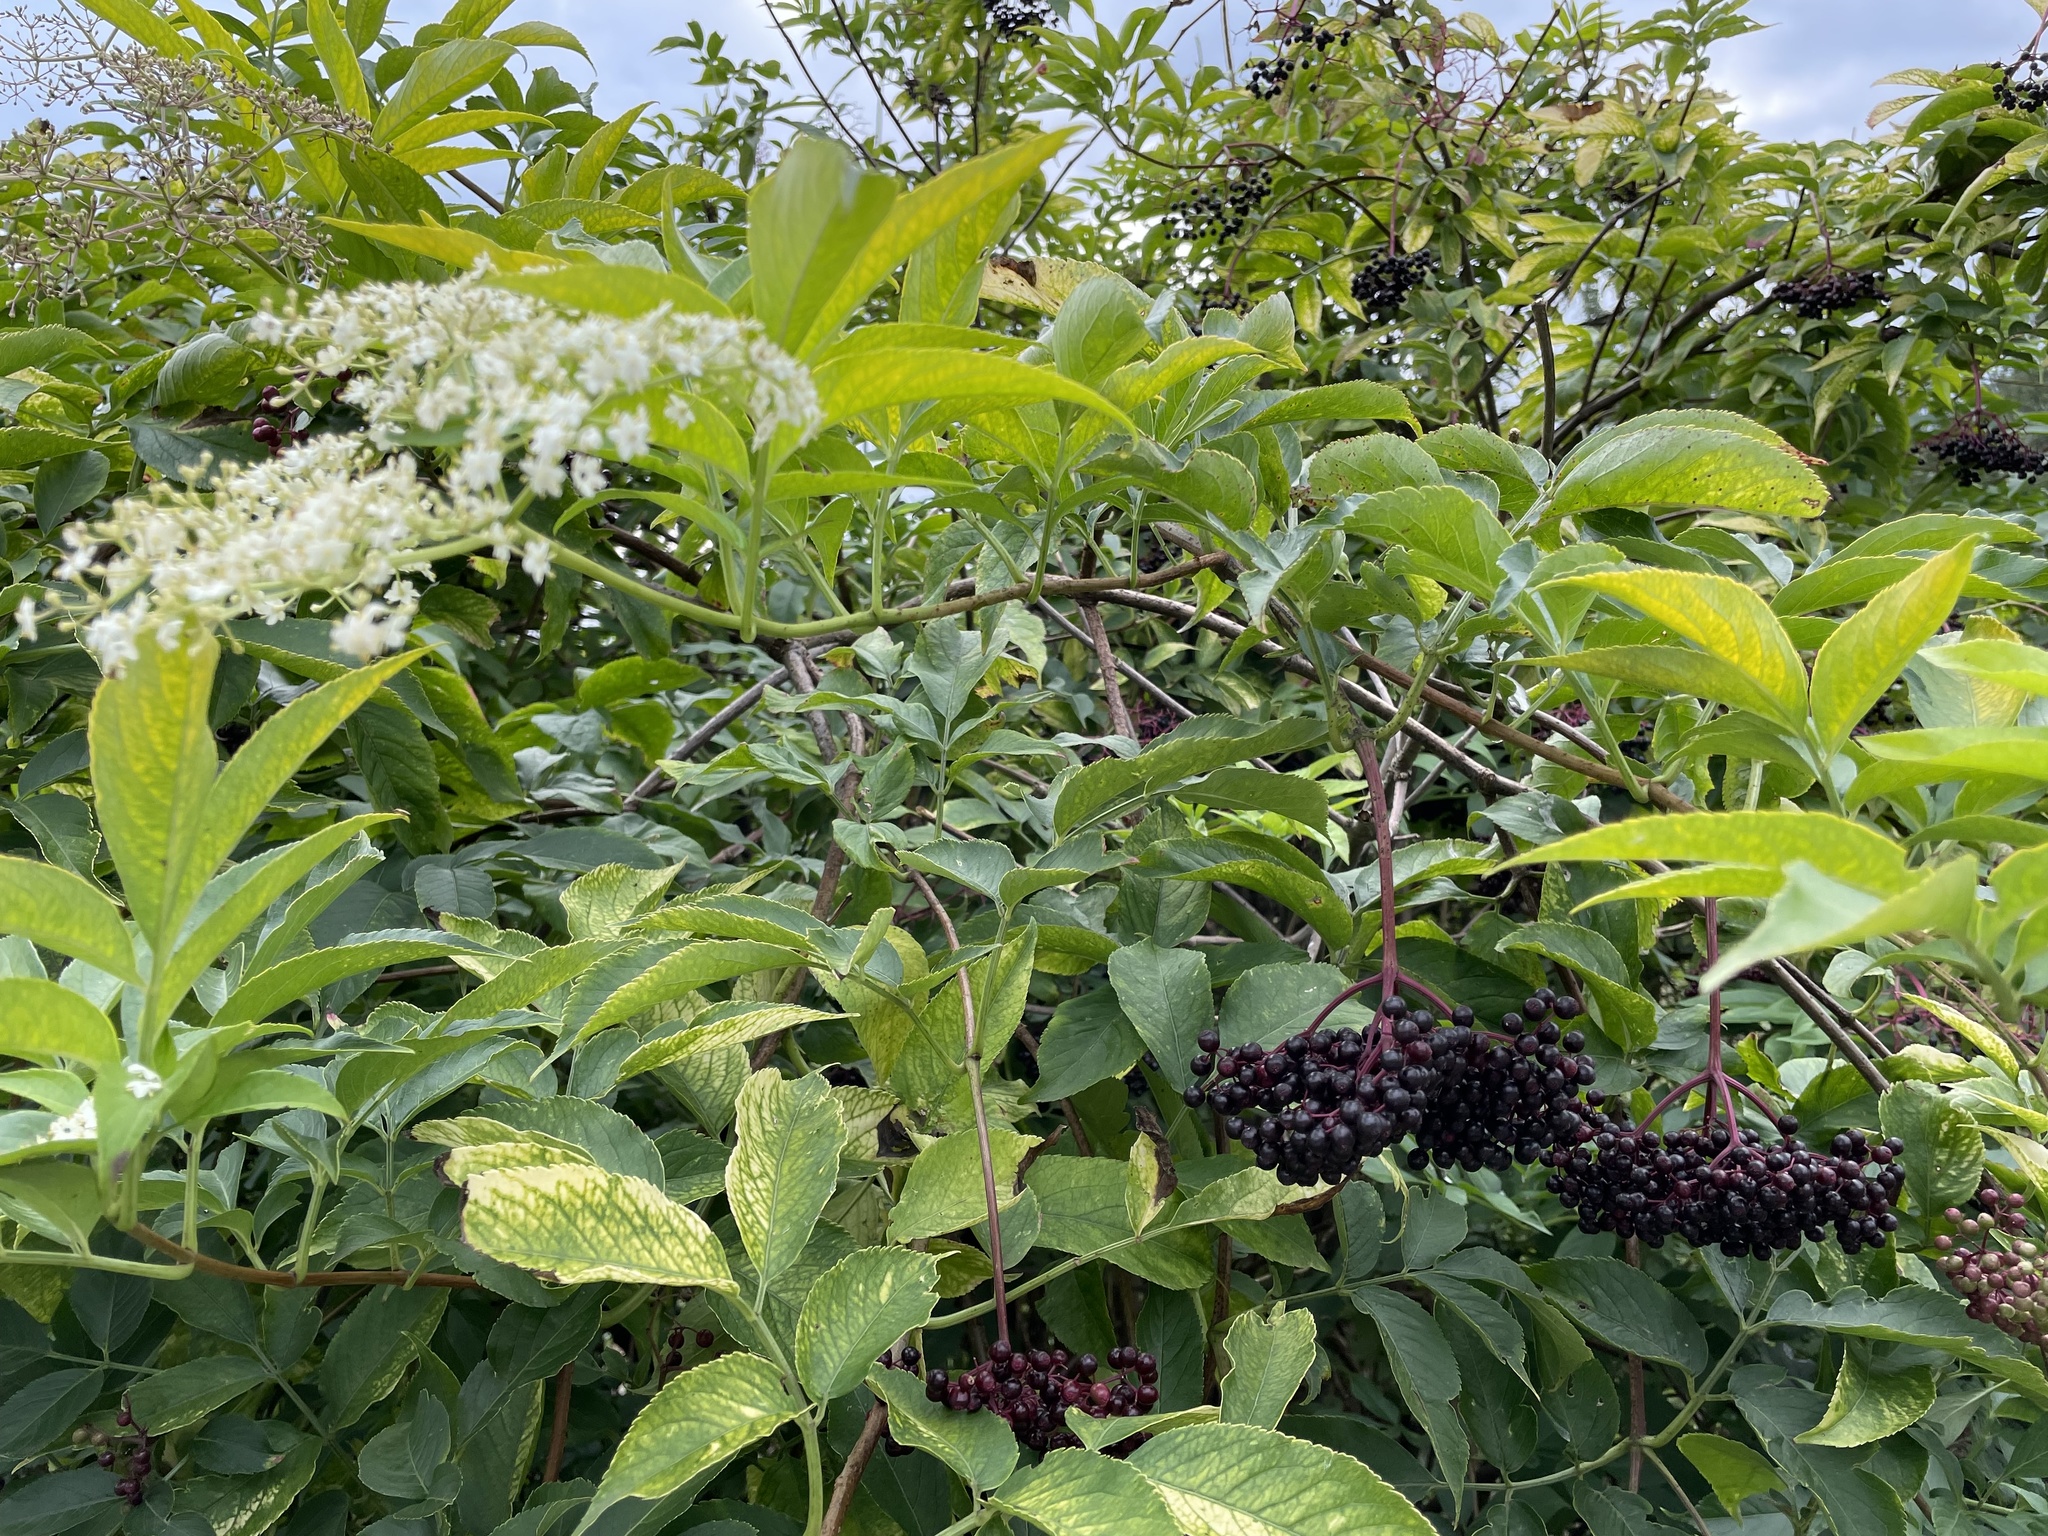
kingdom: Plantae
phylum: Tracheophyta
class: Magnoliopsida
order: Dipsacales
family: Viburnaceae
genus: Sambucus
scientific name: Sambucus nigra
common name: Elder
